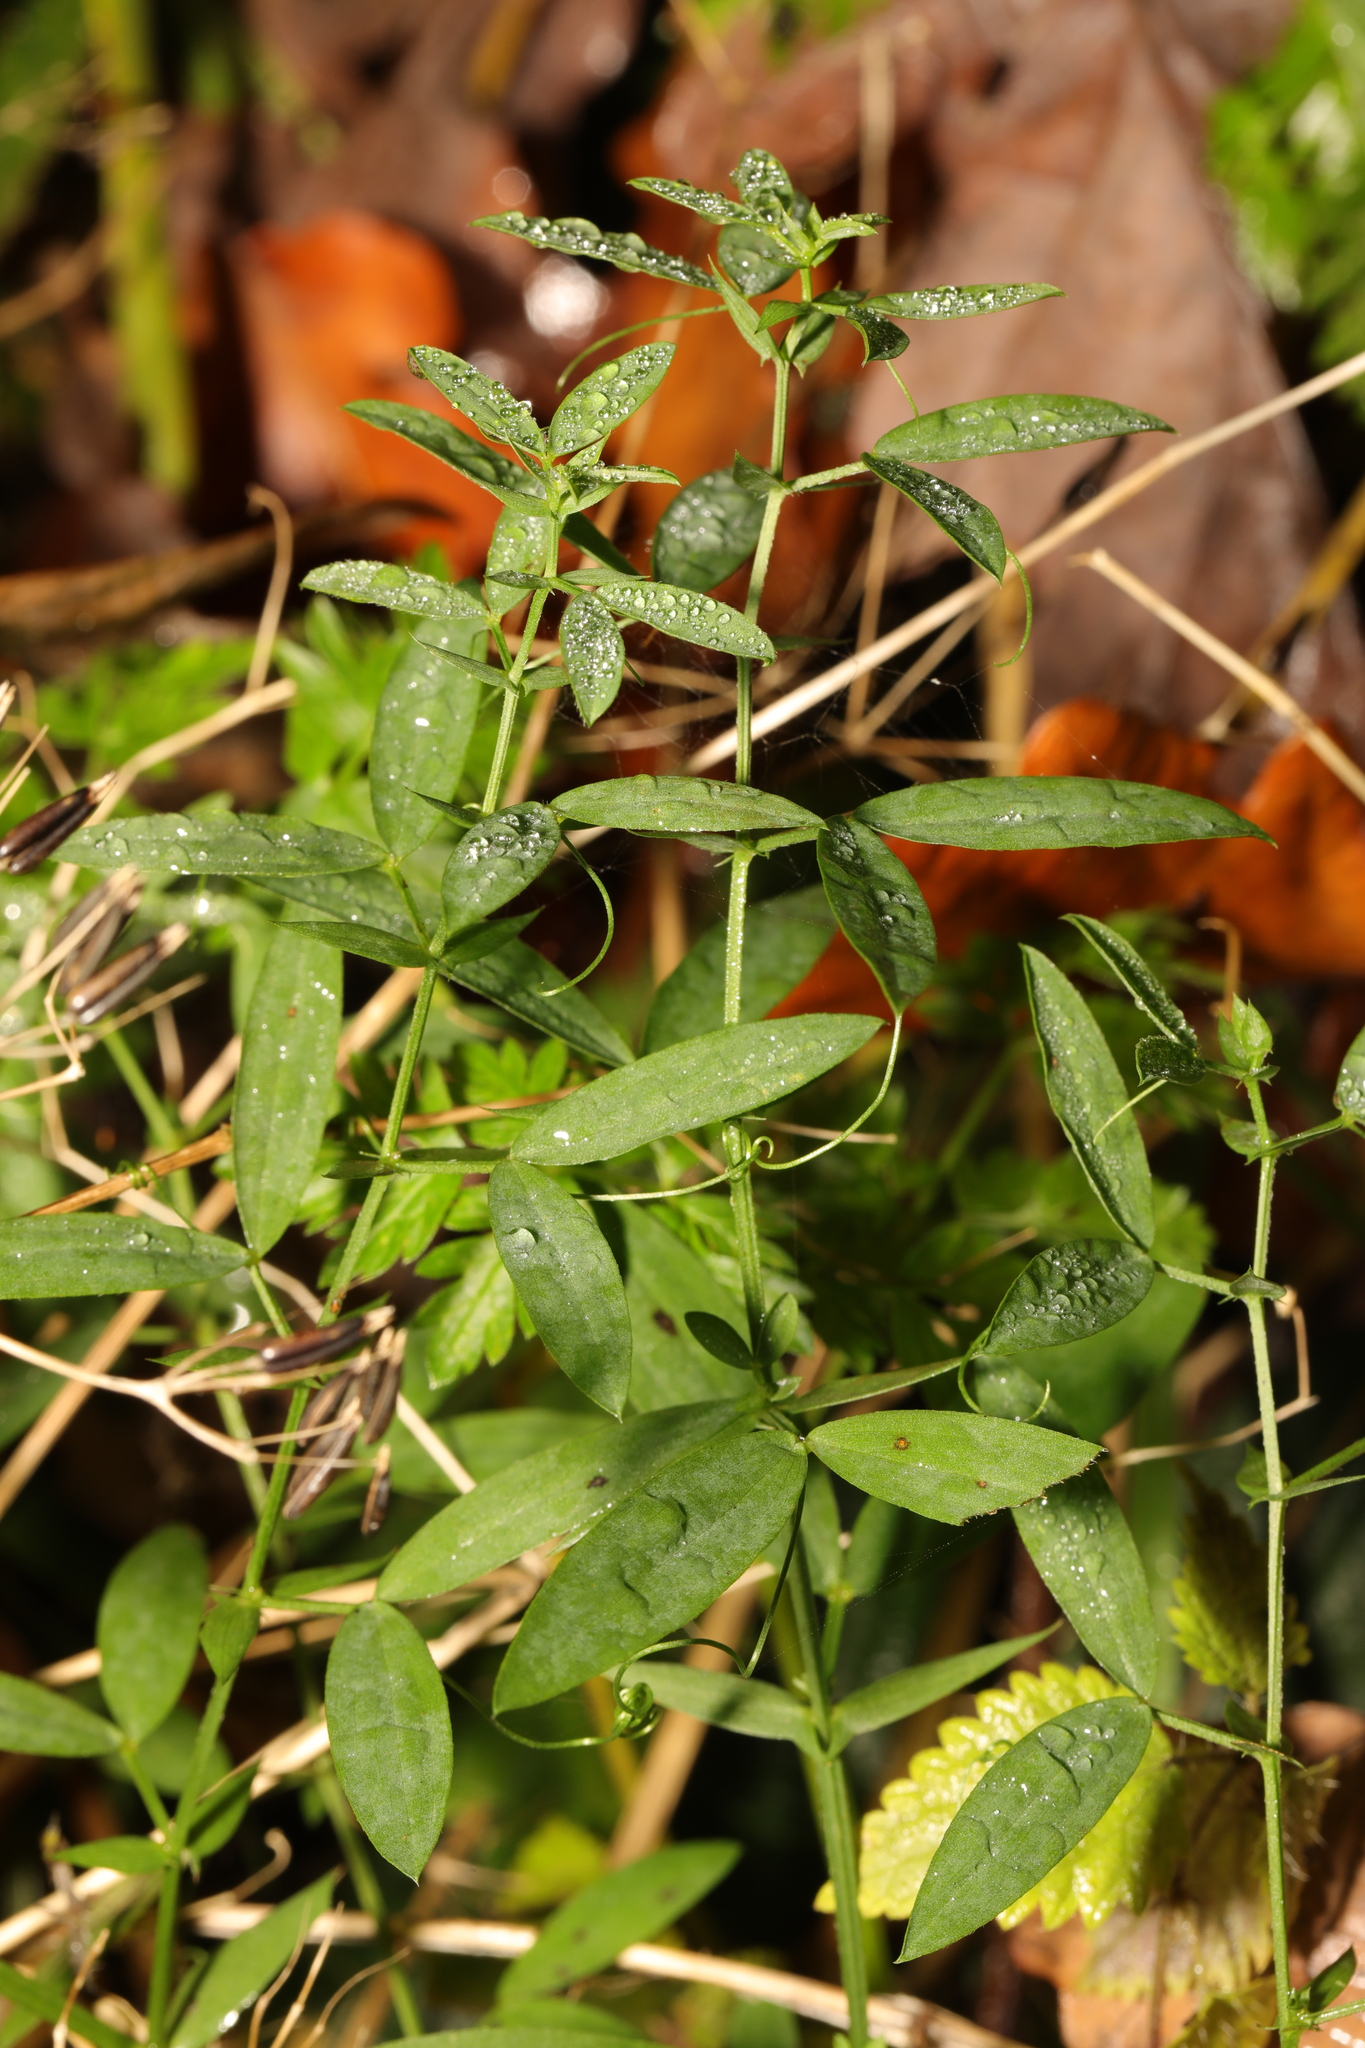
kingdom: Plantae
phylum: Tracheophyta
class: Magnoliopsida
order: Fabales
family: Fabaceae
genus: Lathyrus
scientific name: Lathyrus pratensis
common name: Meadow vetchling
